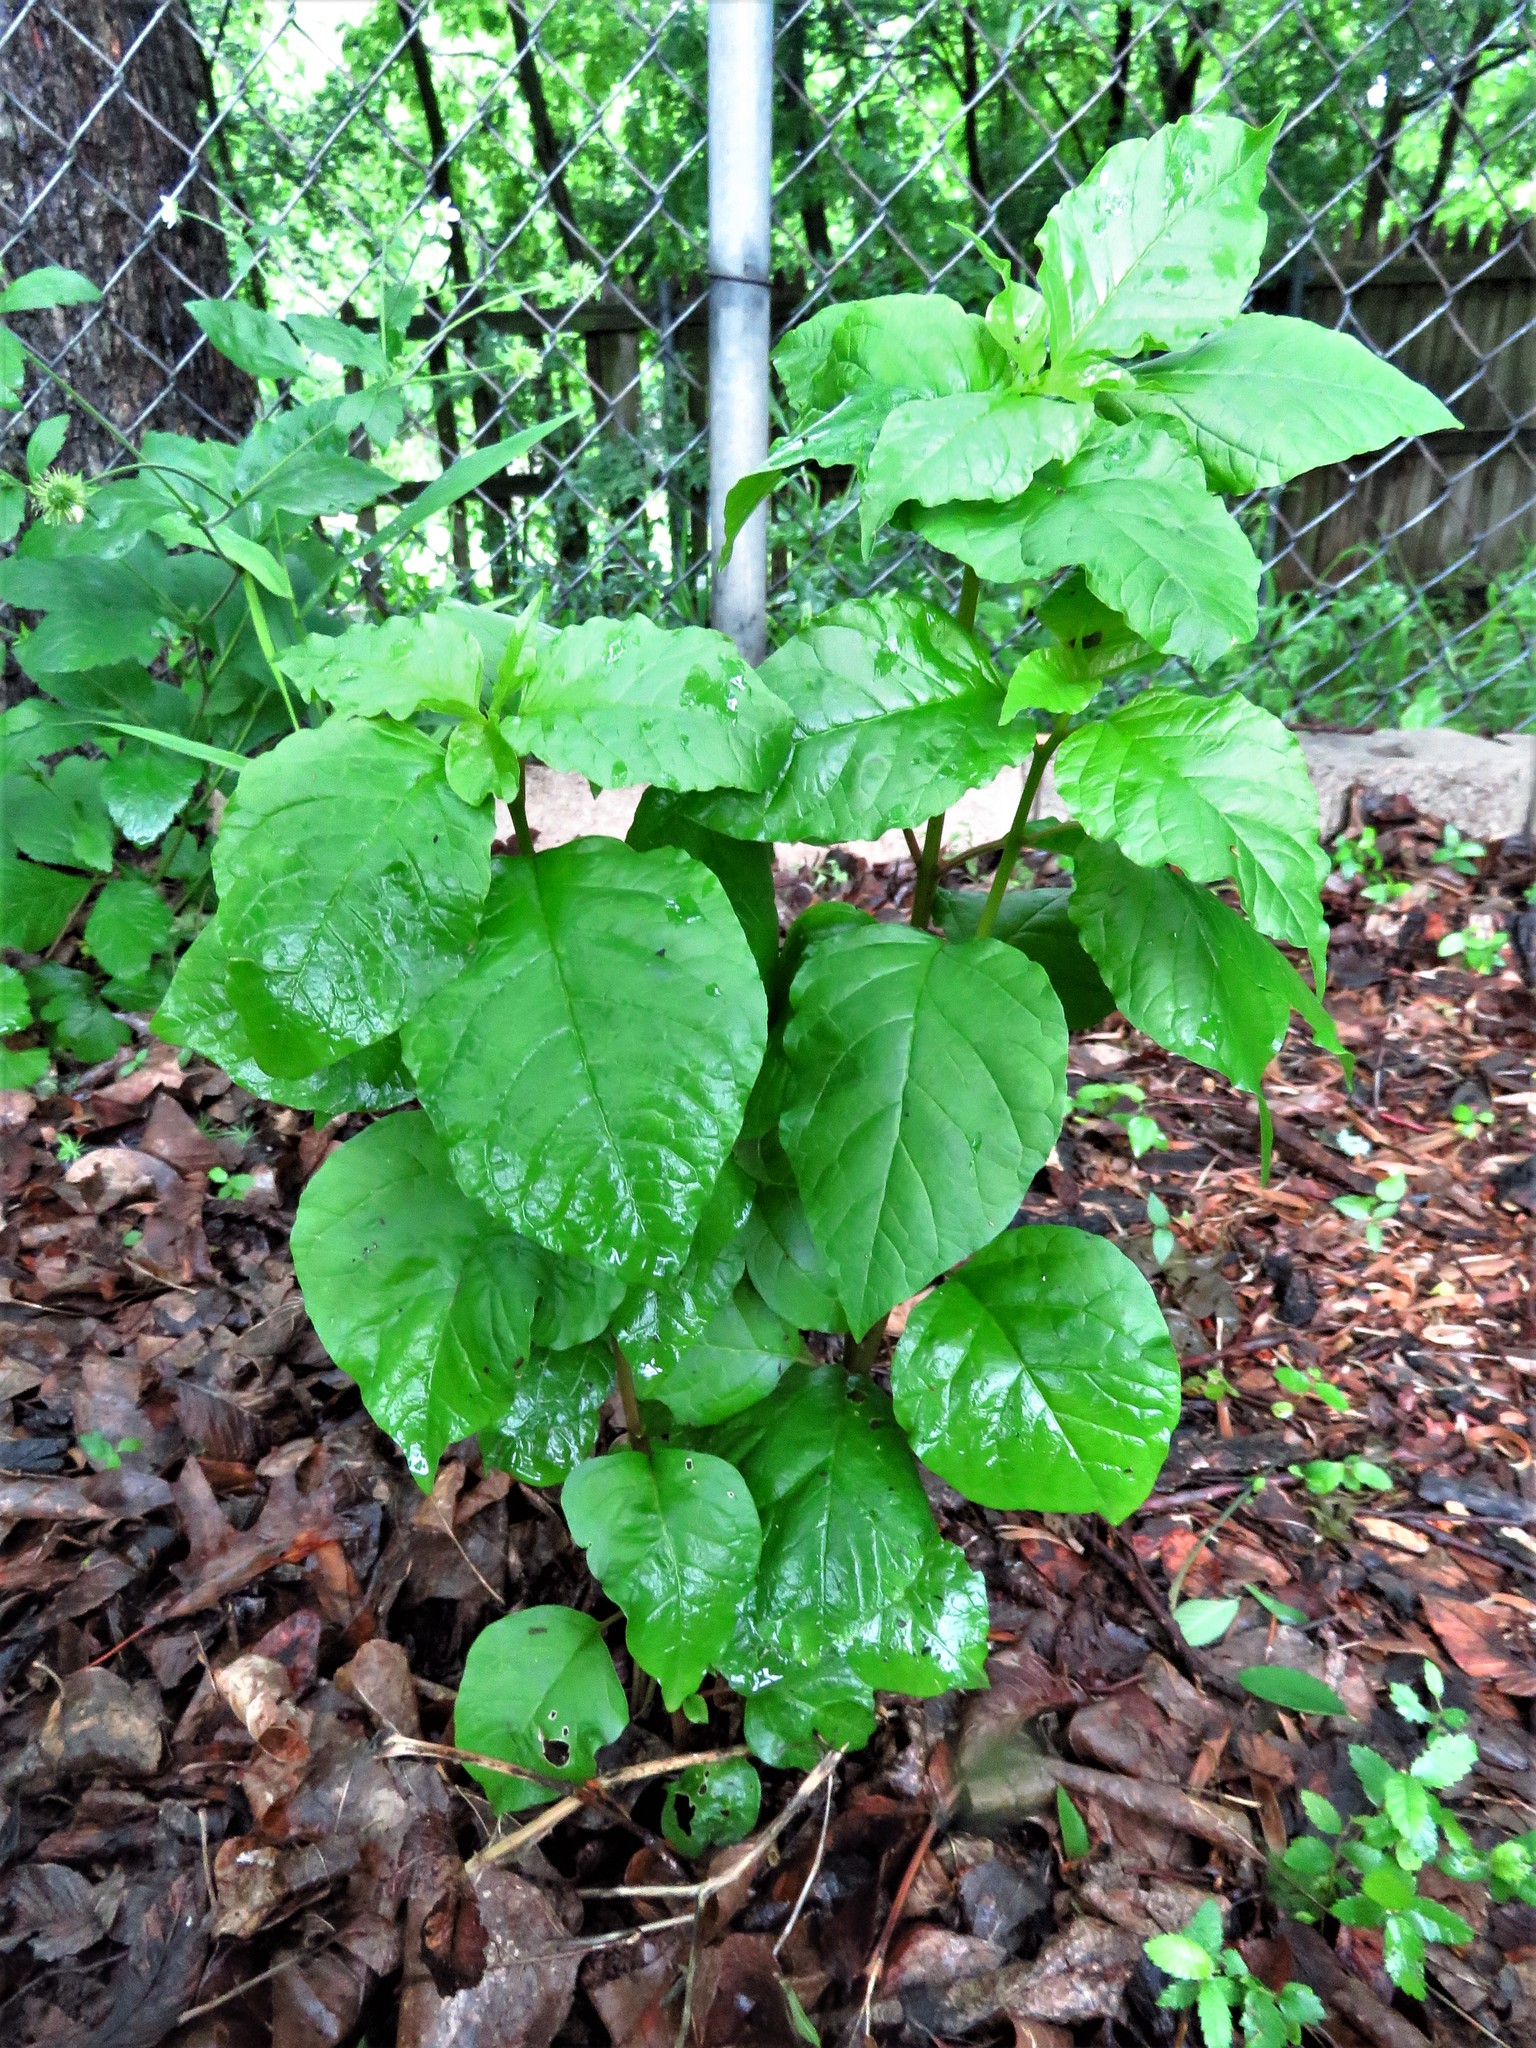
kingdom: Plantae
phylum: Tracheophyta
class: Magnoliopsida
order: Caryophyllales
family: Phytolaccaceae
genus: Rivina
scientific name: Rivina humilis
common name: Rougeplant
